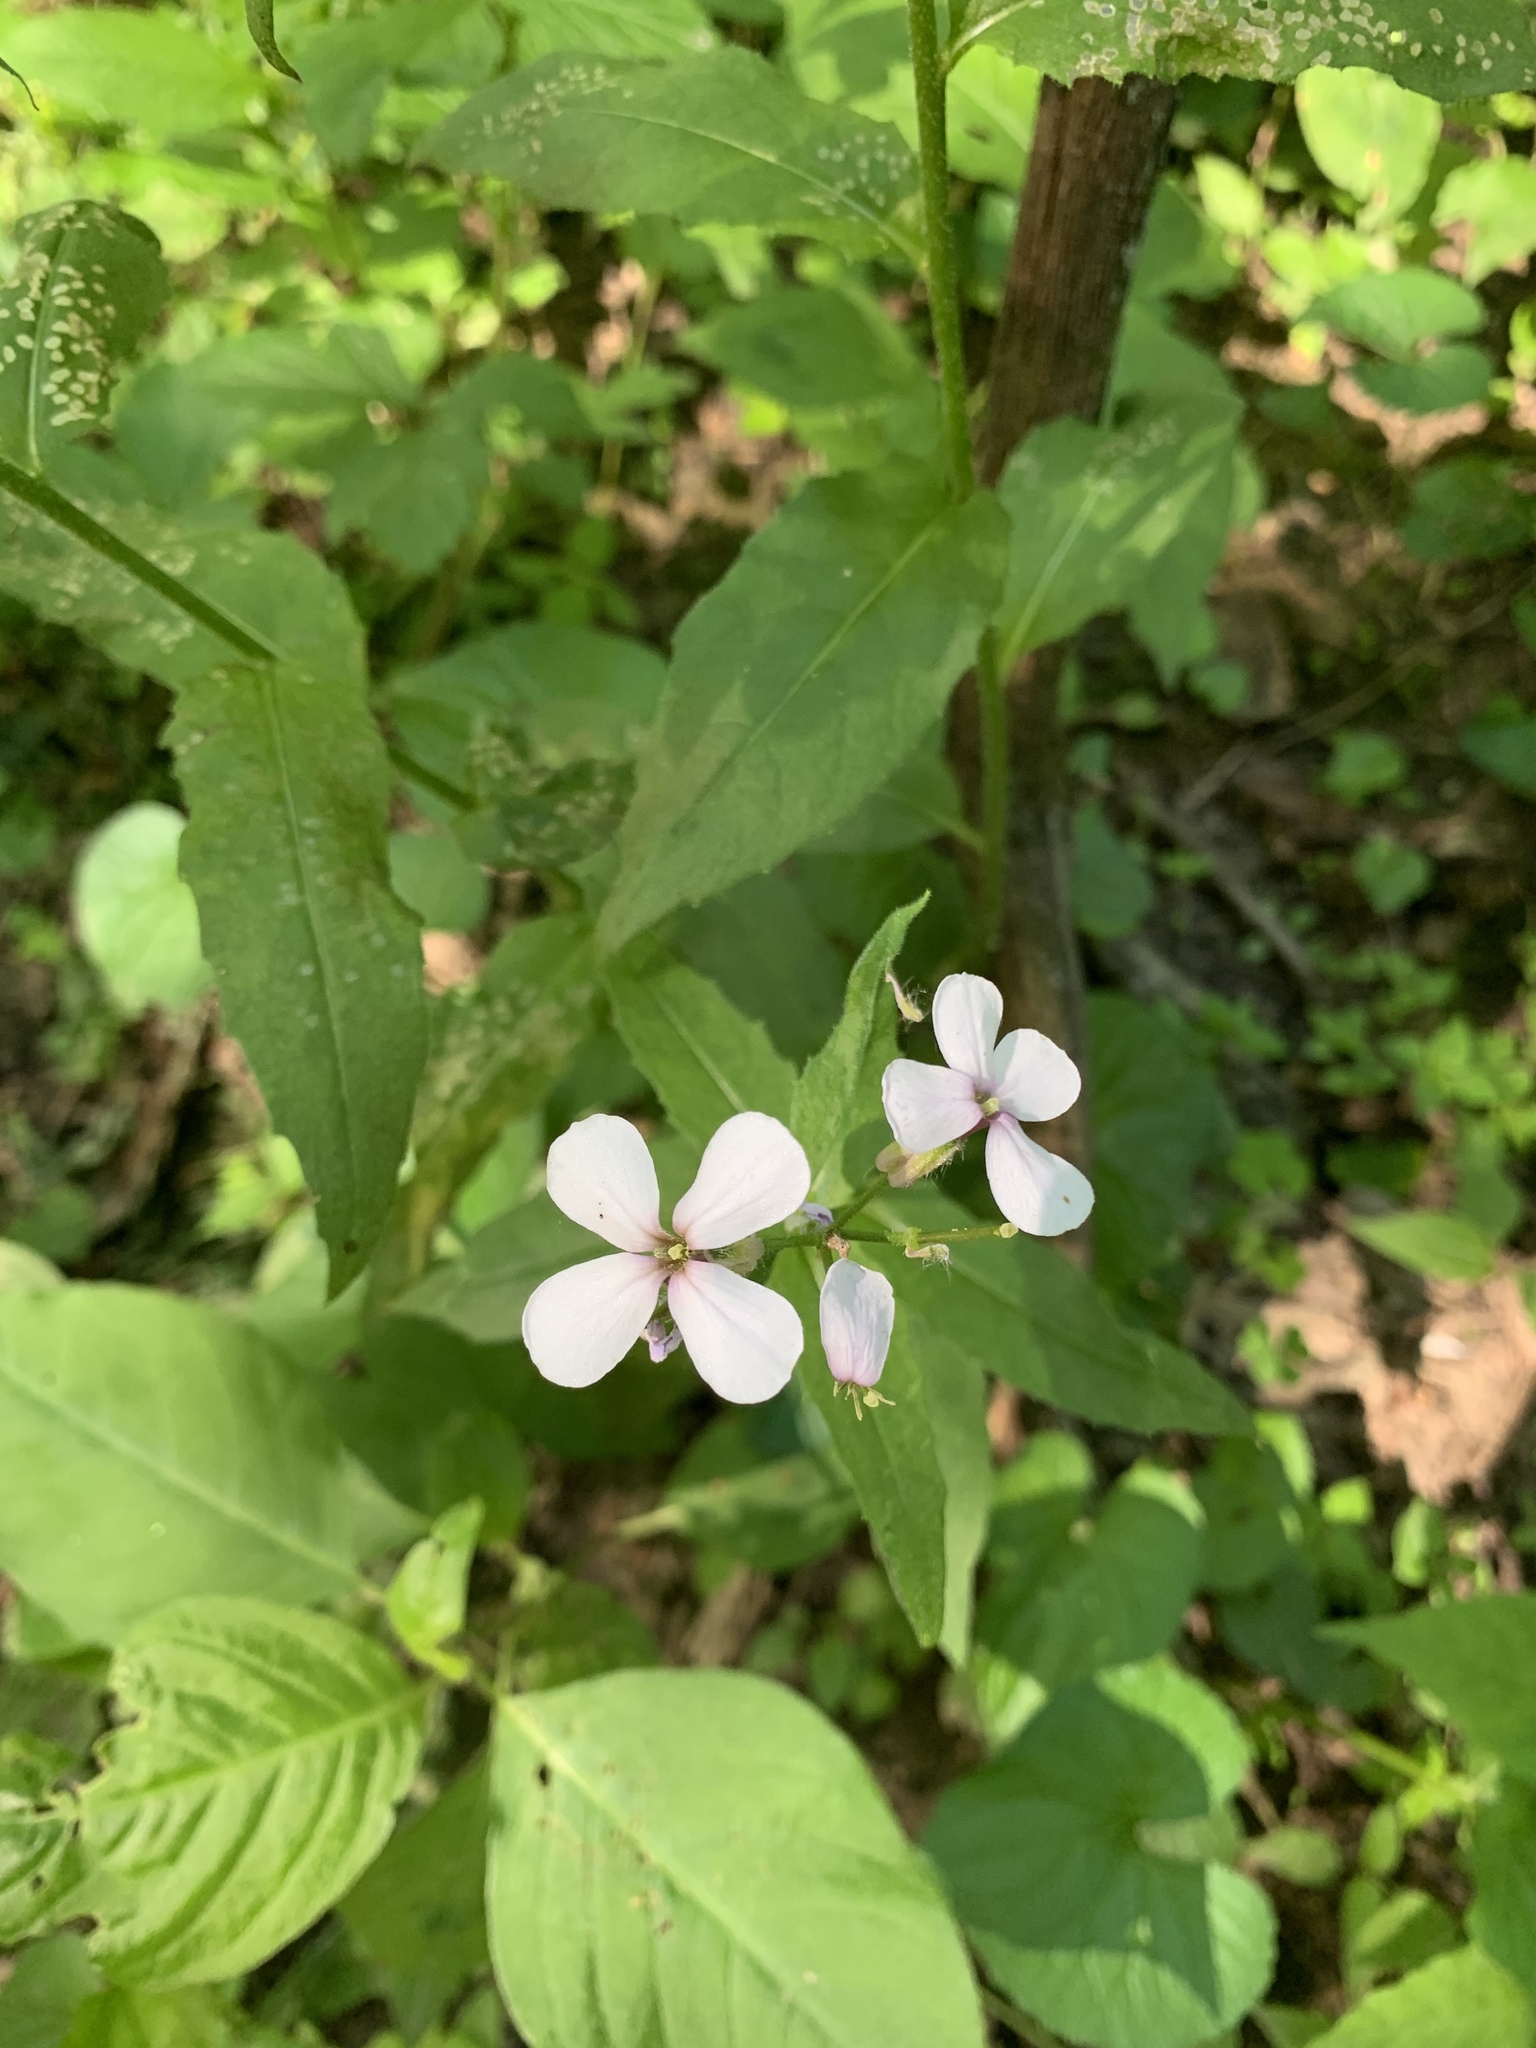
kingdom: Plantae
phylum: Tracheophyta
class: Magnoliopsida
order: Brassicales
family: Brassicaceae
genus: Hesperis
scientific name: Hesperis matronalis
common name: Dame's-violet
